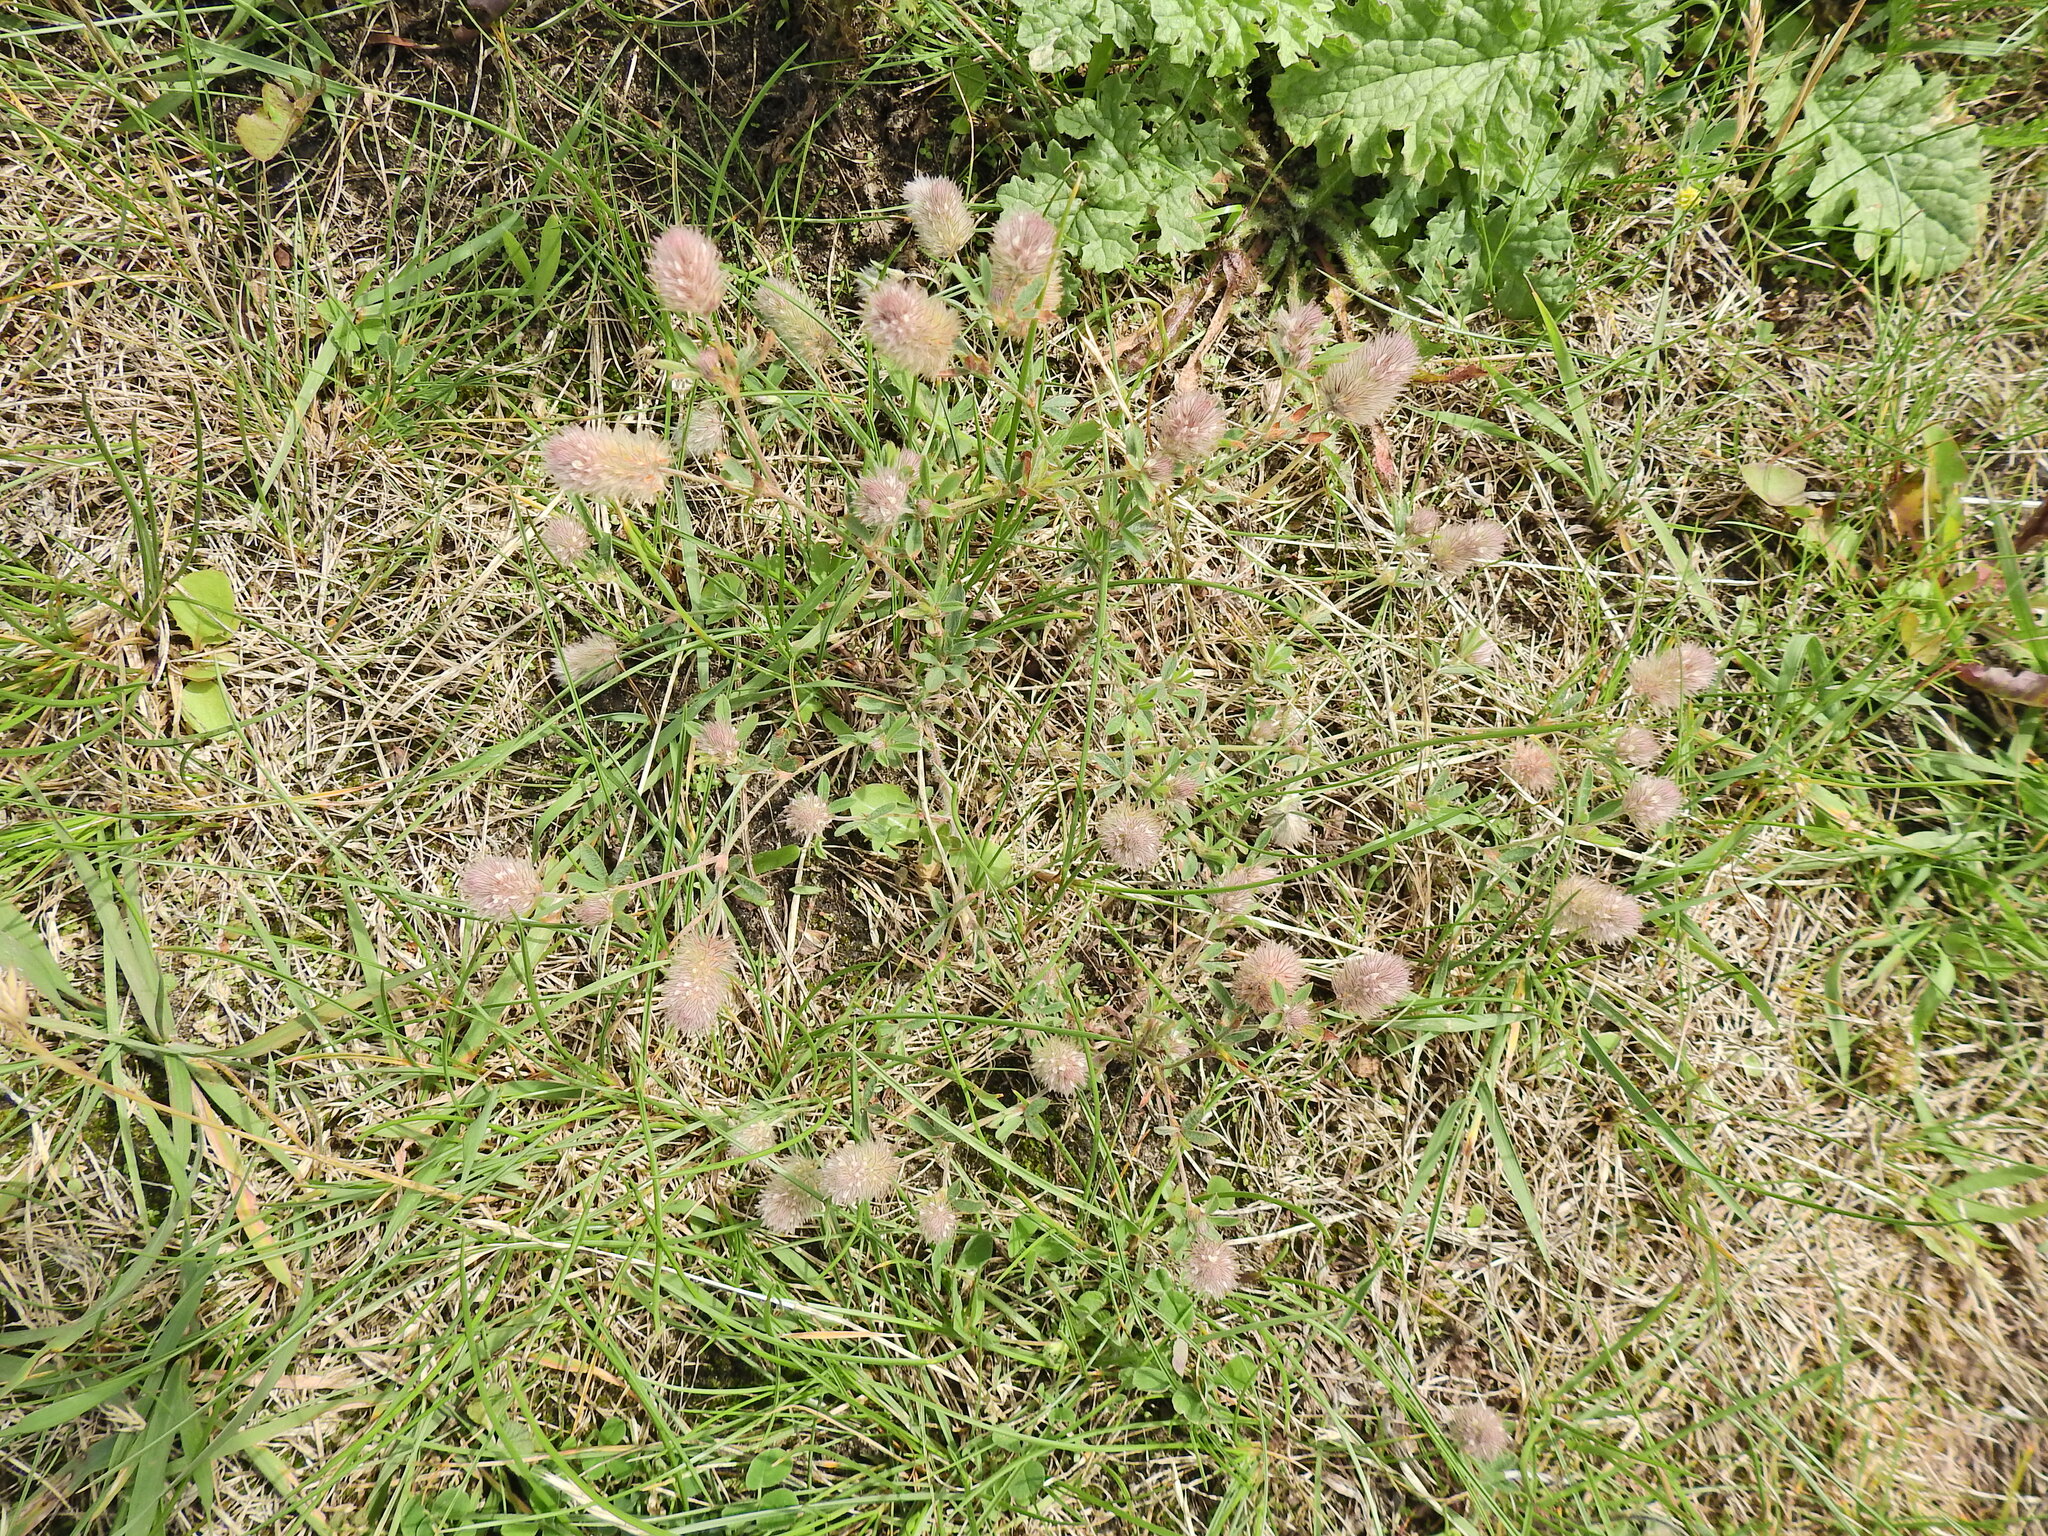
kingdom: Plantae
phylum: Tracheophyta
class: Magnoliopsida
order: Fabales
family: Fabaceae
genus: Trifolium
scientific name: Trifolium arvense
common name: Hare's-foot clover
